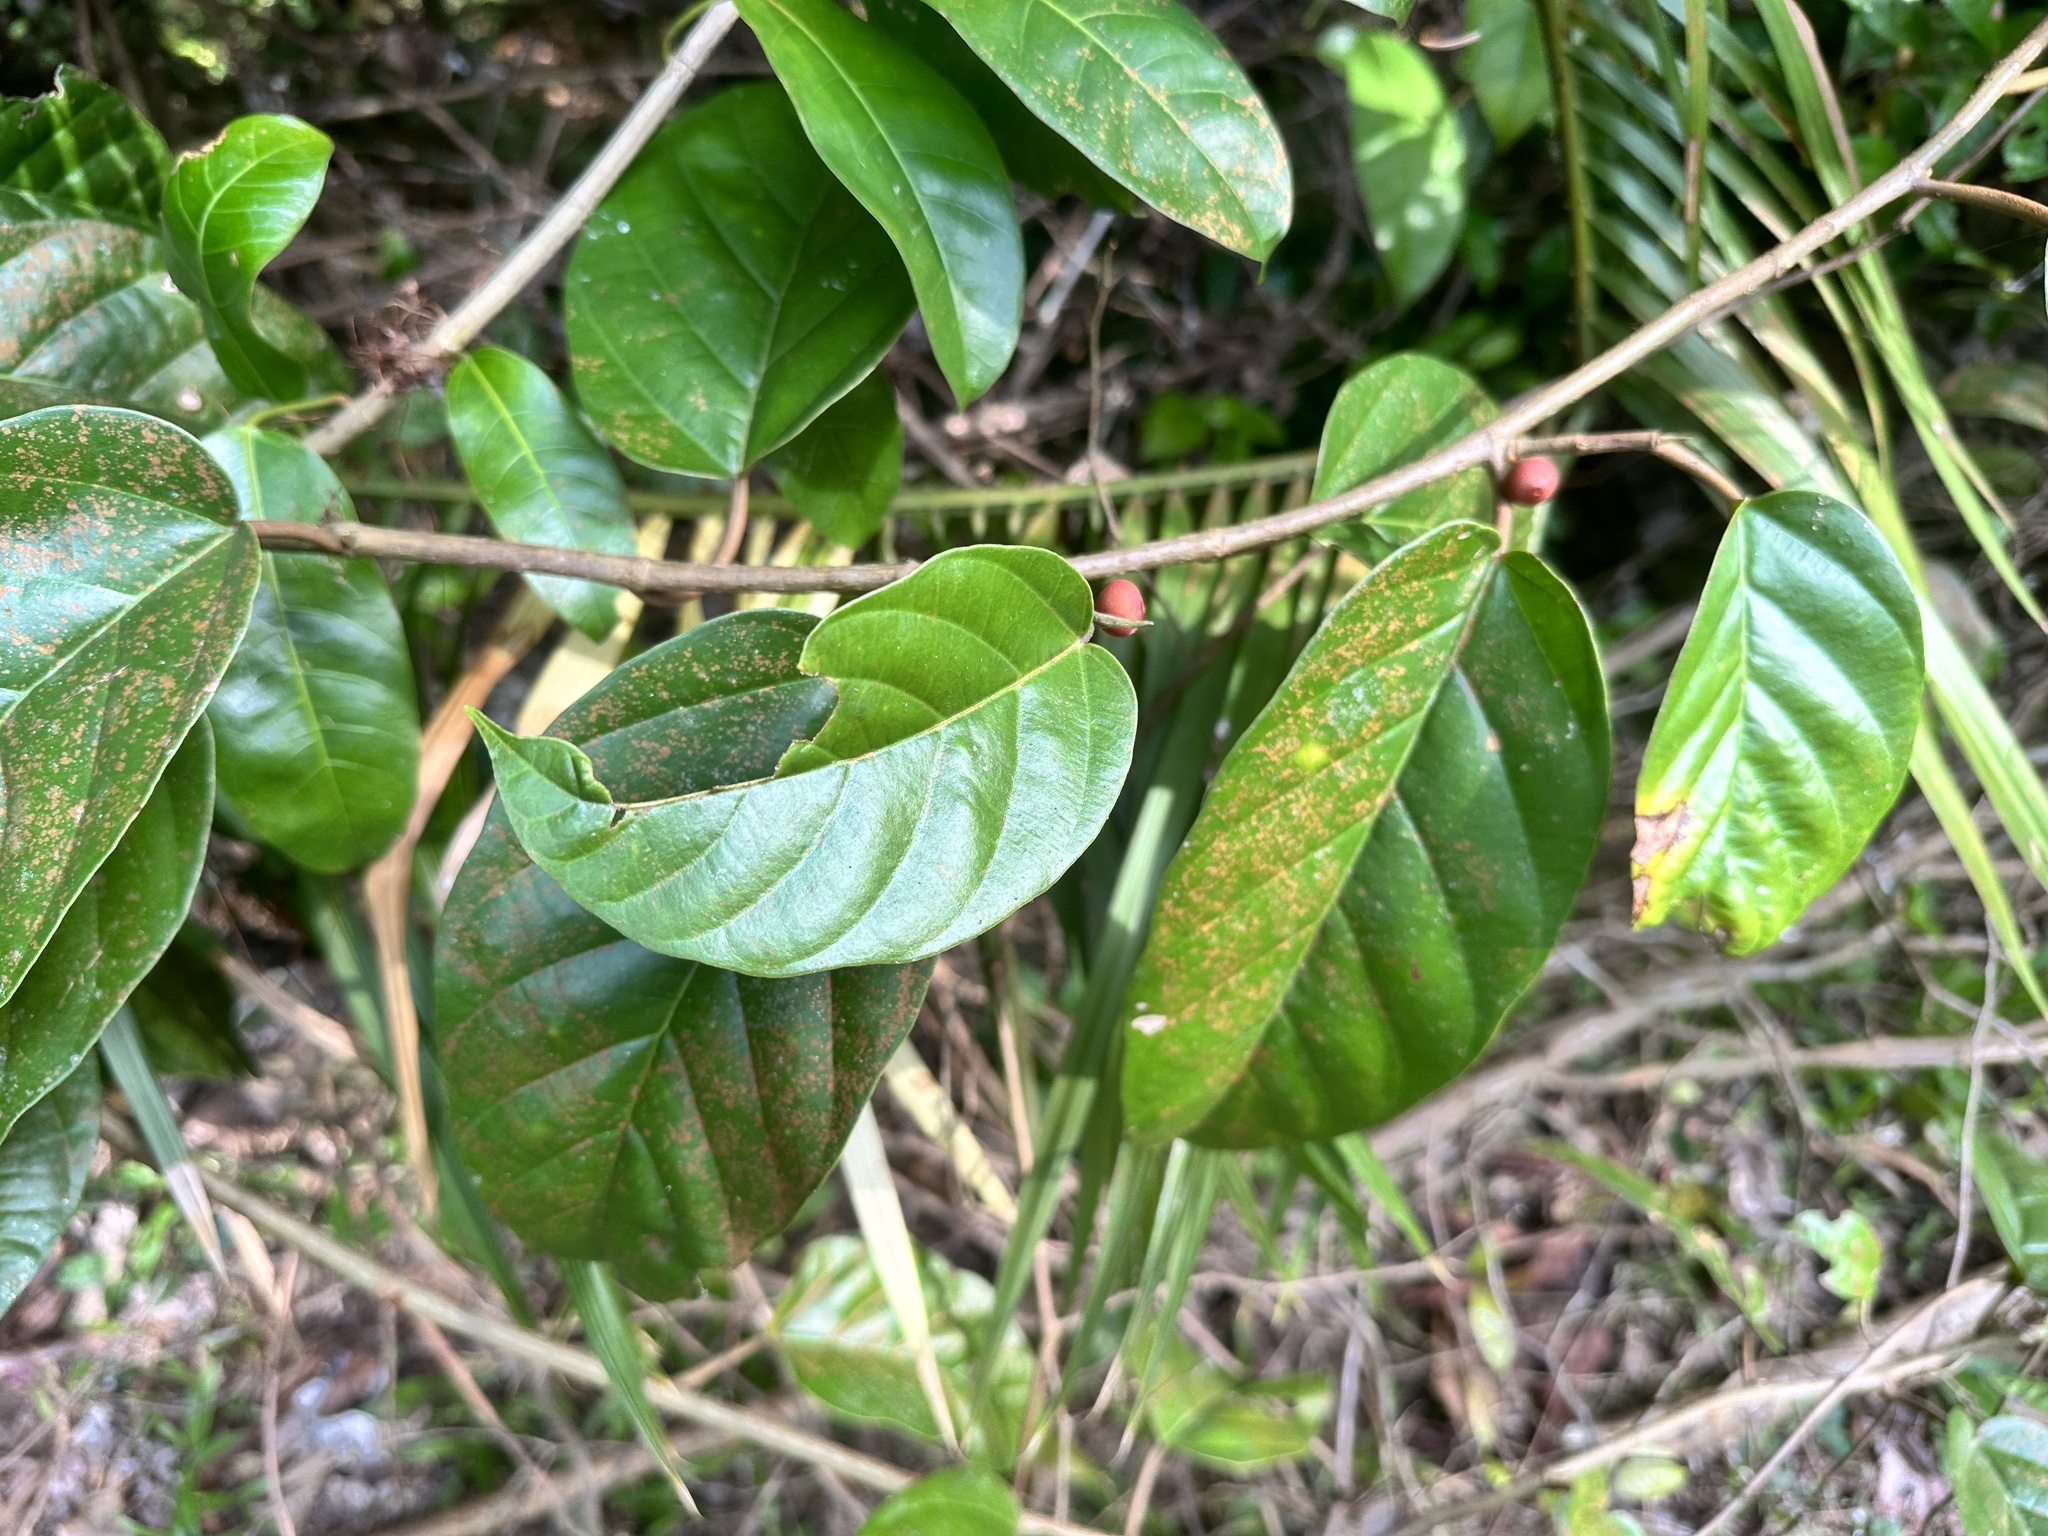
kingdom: Plantae
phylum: Tracheophyta
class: Magnoliopsida
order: Rosales
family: Moraceae
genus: Ficus
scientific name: Ficus sagittata
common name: Trailing fig
